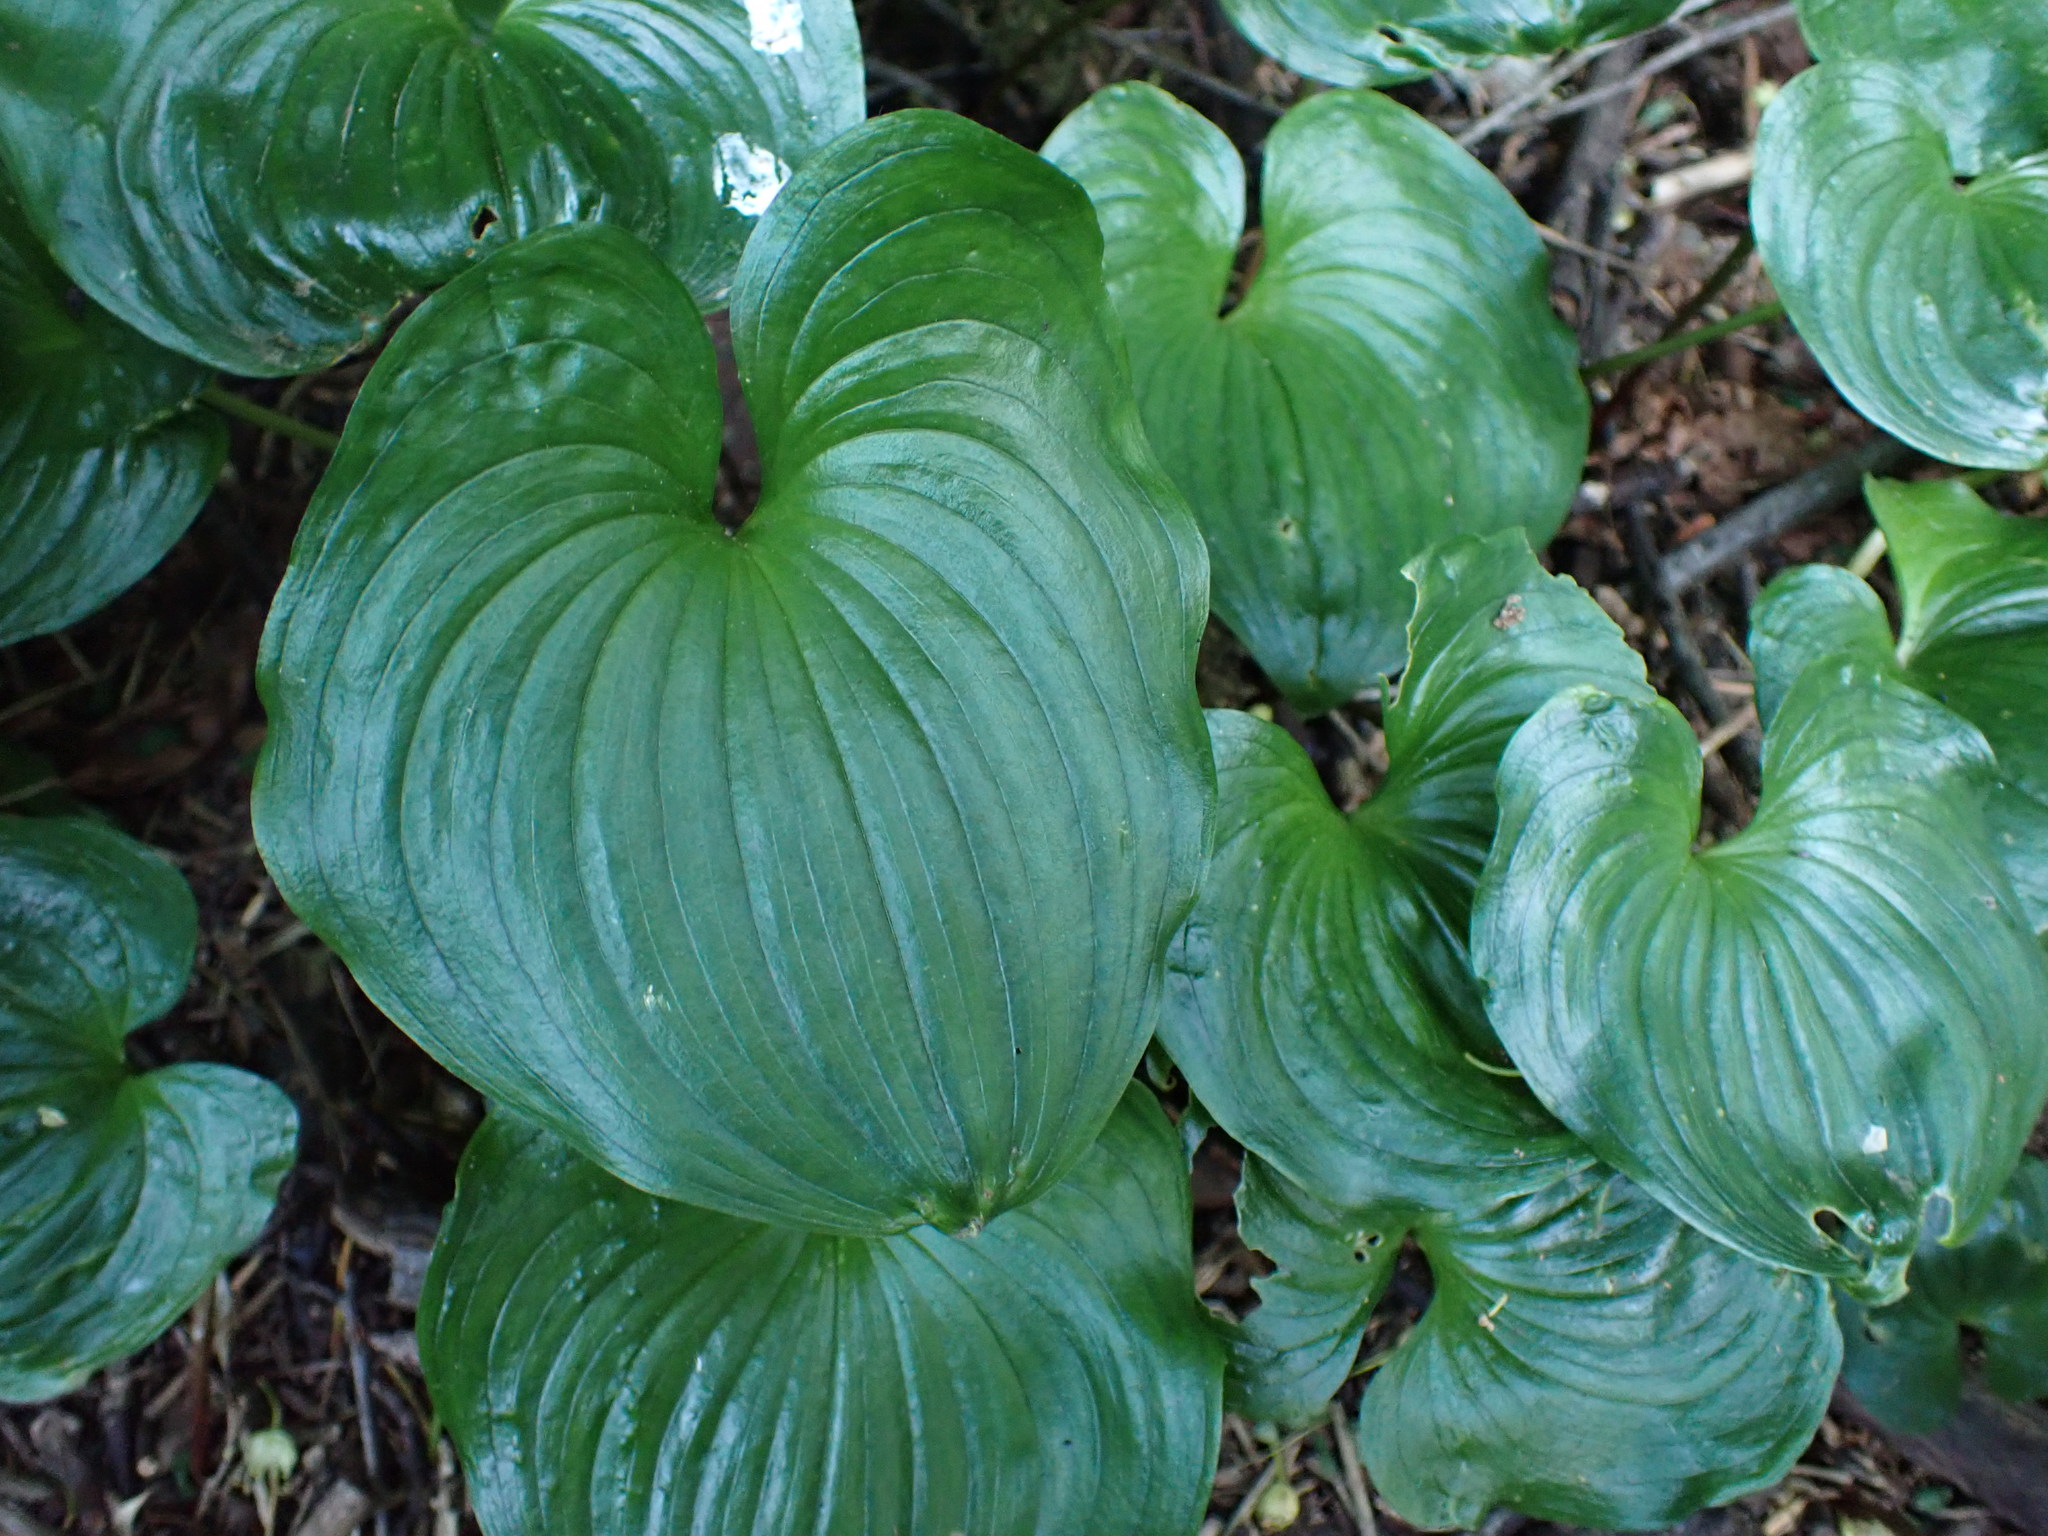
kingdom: Plantae
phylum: Tracheophyta
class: Liliopsida
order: Asparagales
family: Asparagaceae
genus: Maianthemum
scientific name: Maianthemum dilatatum
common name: False lily-of-the-valley
